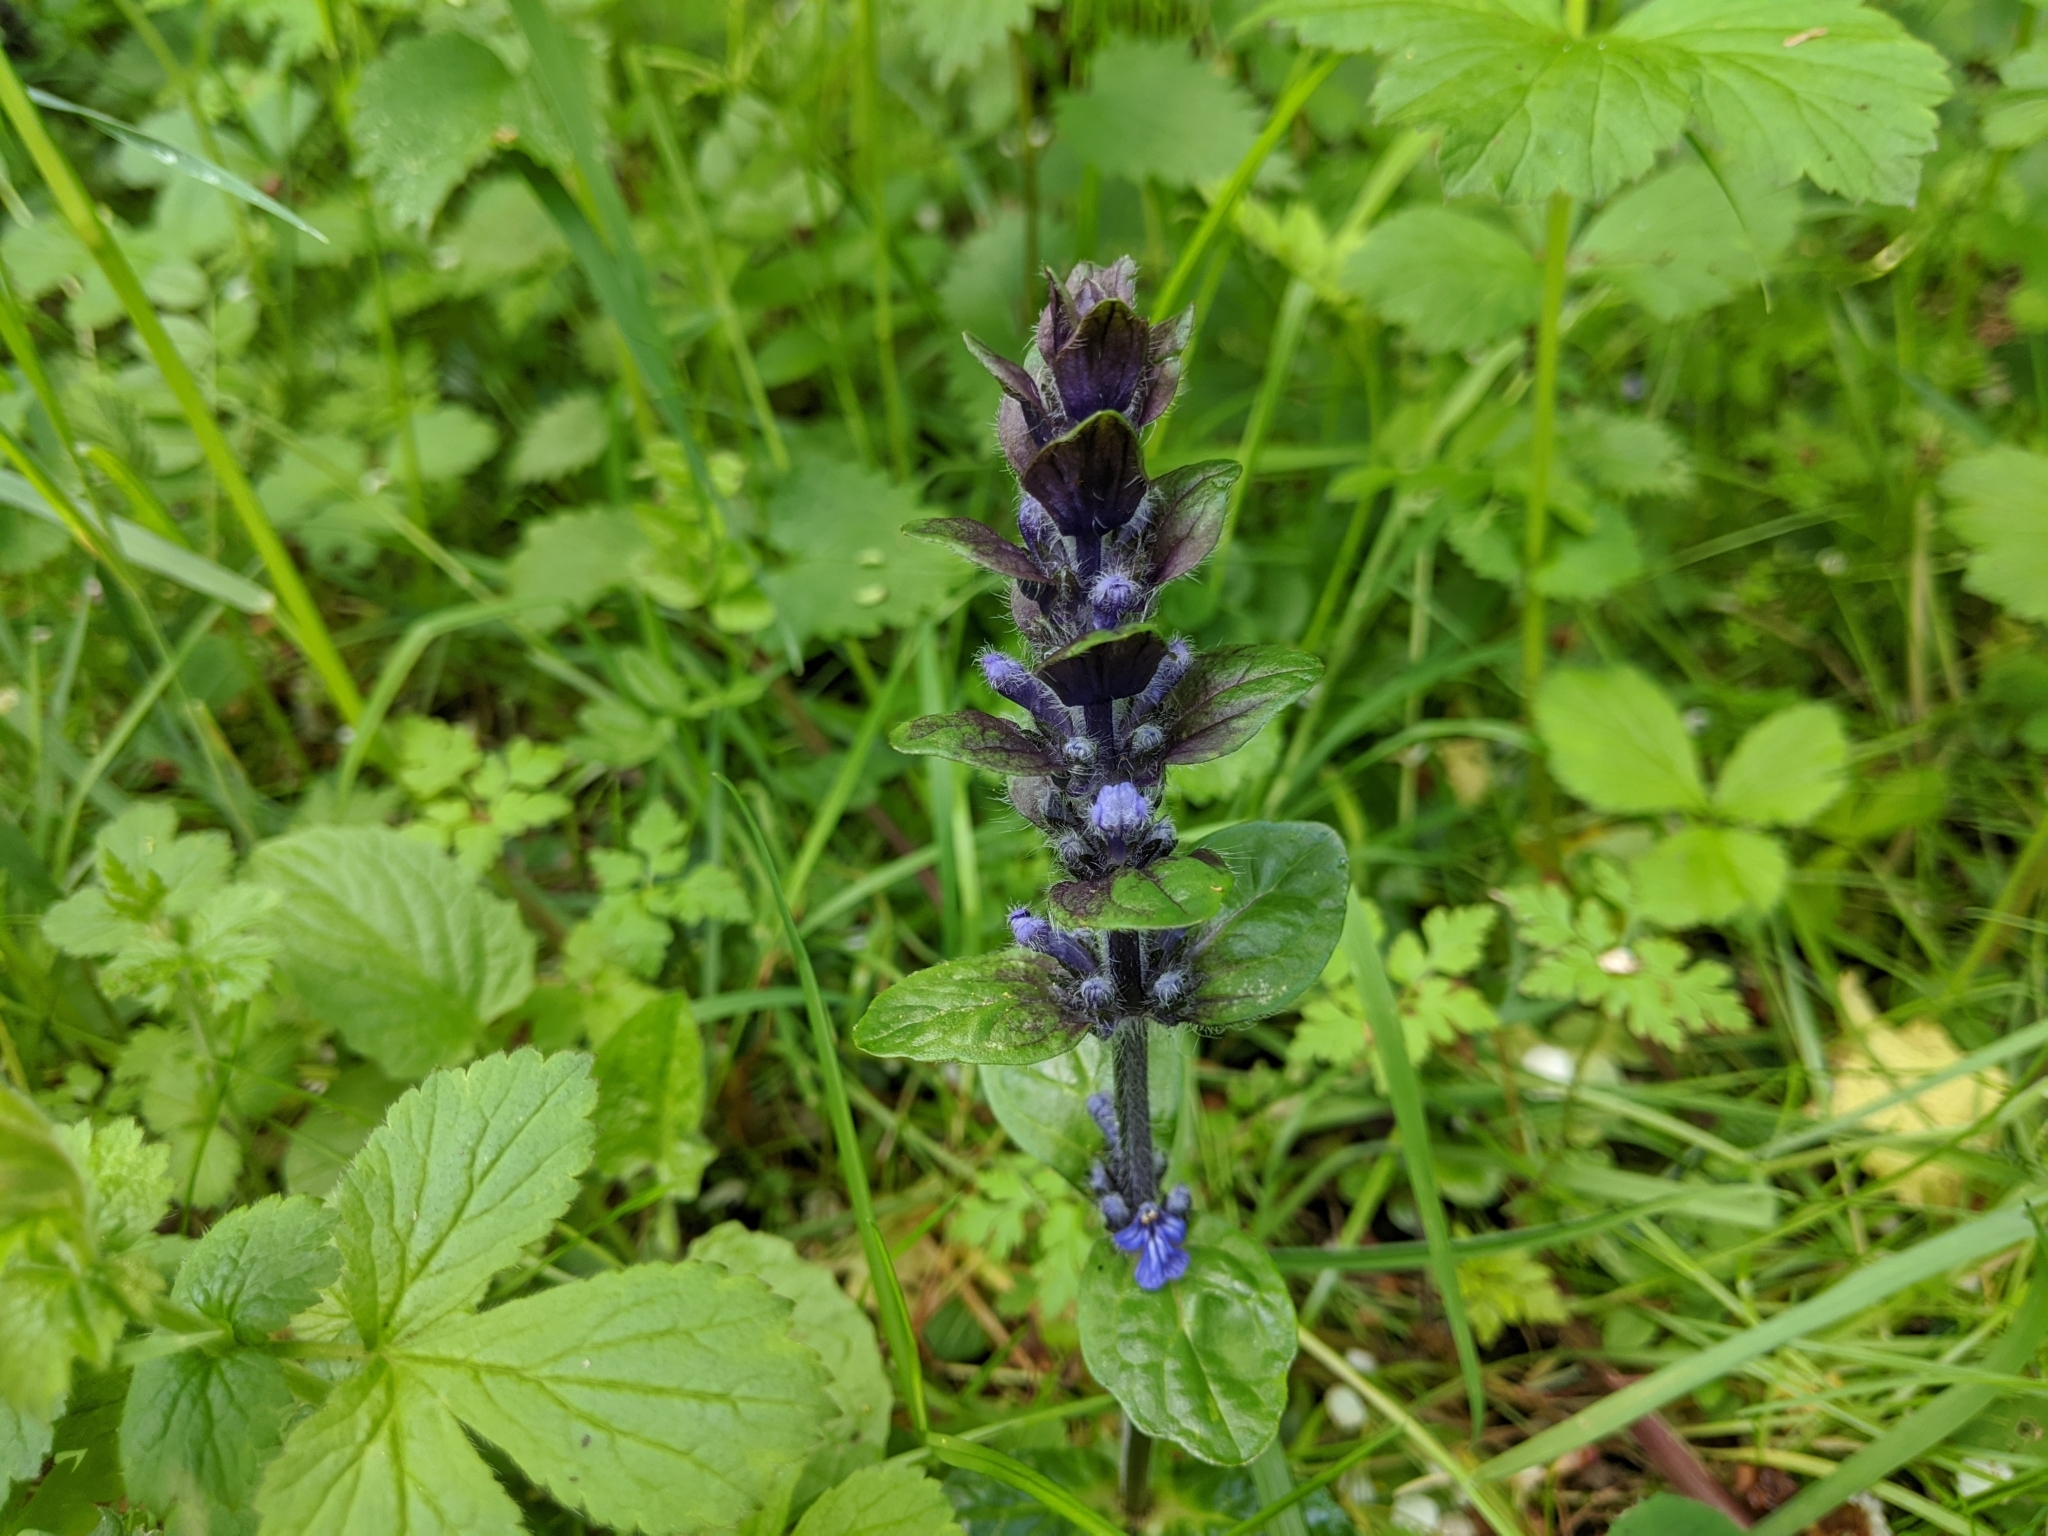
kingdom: Plantae
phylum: Tracheophyta
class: Magnoliopsida
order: Lamiales
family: Lamiaceae
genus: Ajuga
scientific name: Ajuga reptans
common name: Bugle
